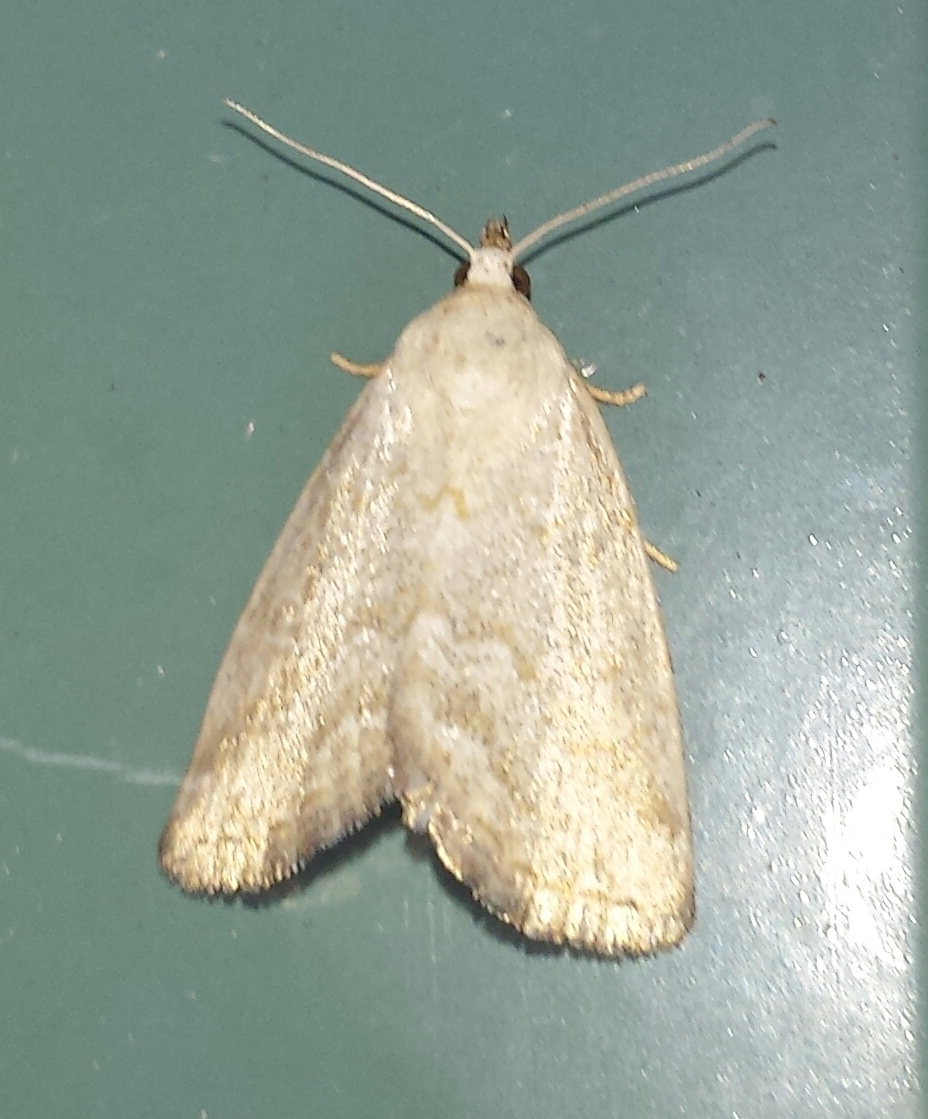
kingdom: Animalia
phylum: Arthropoda
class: Insecta
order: Lepidoptera
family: Noctuidae
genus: Protodeltote
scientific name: Protodeltote albidula
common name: Pale glyph
